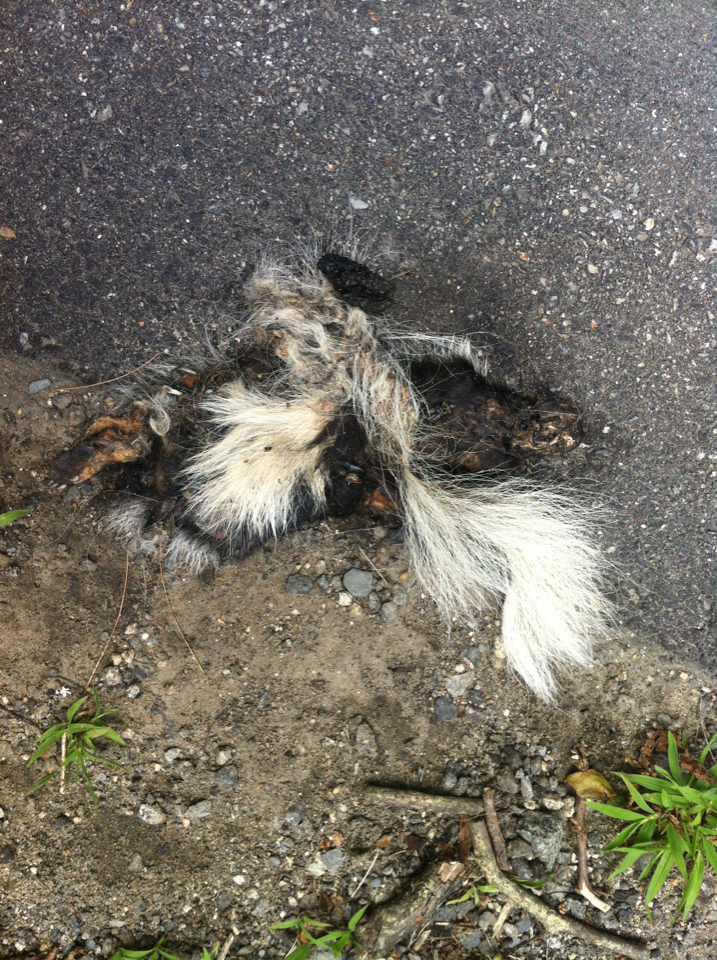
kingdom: Animalia
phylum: Chordata
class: Mammalia
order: Carnivora
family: Mephitidae
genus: Mephitis
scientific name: Mephitis mephitis
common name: Striped skunk
